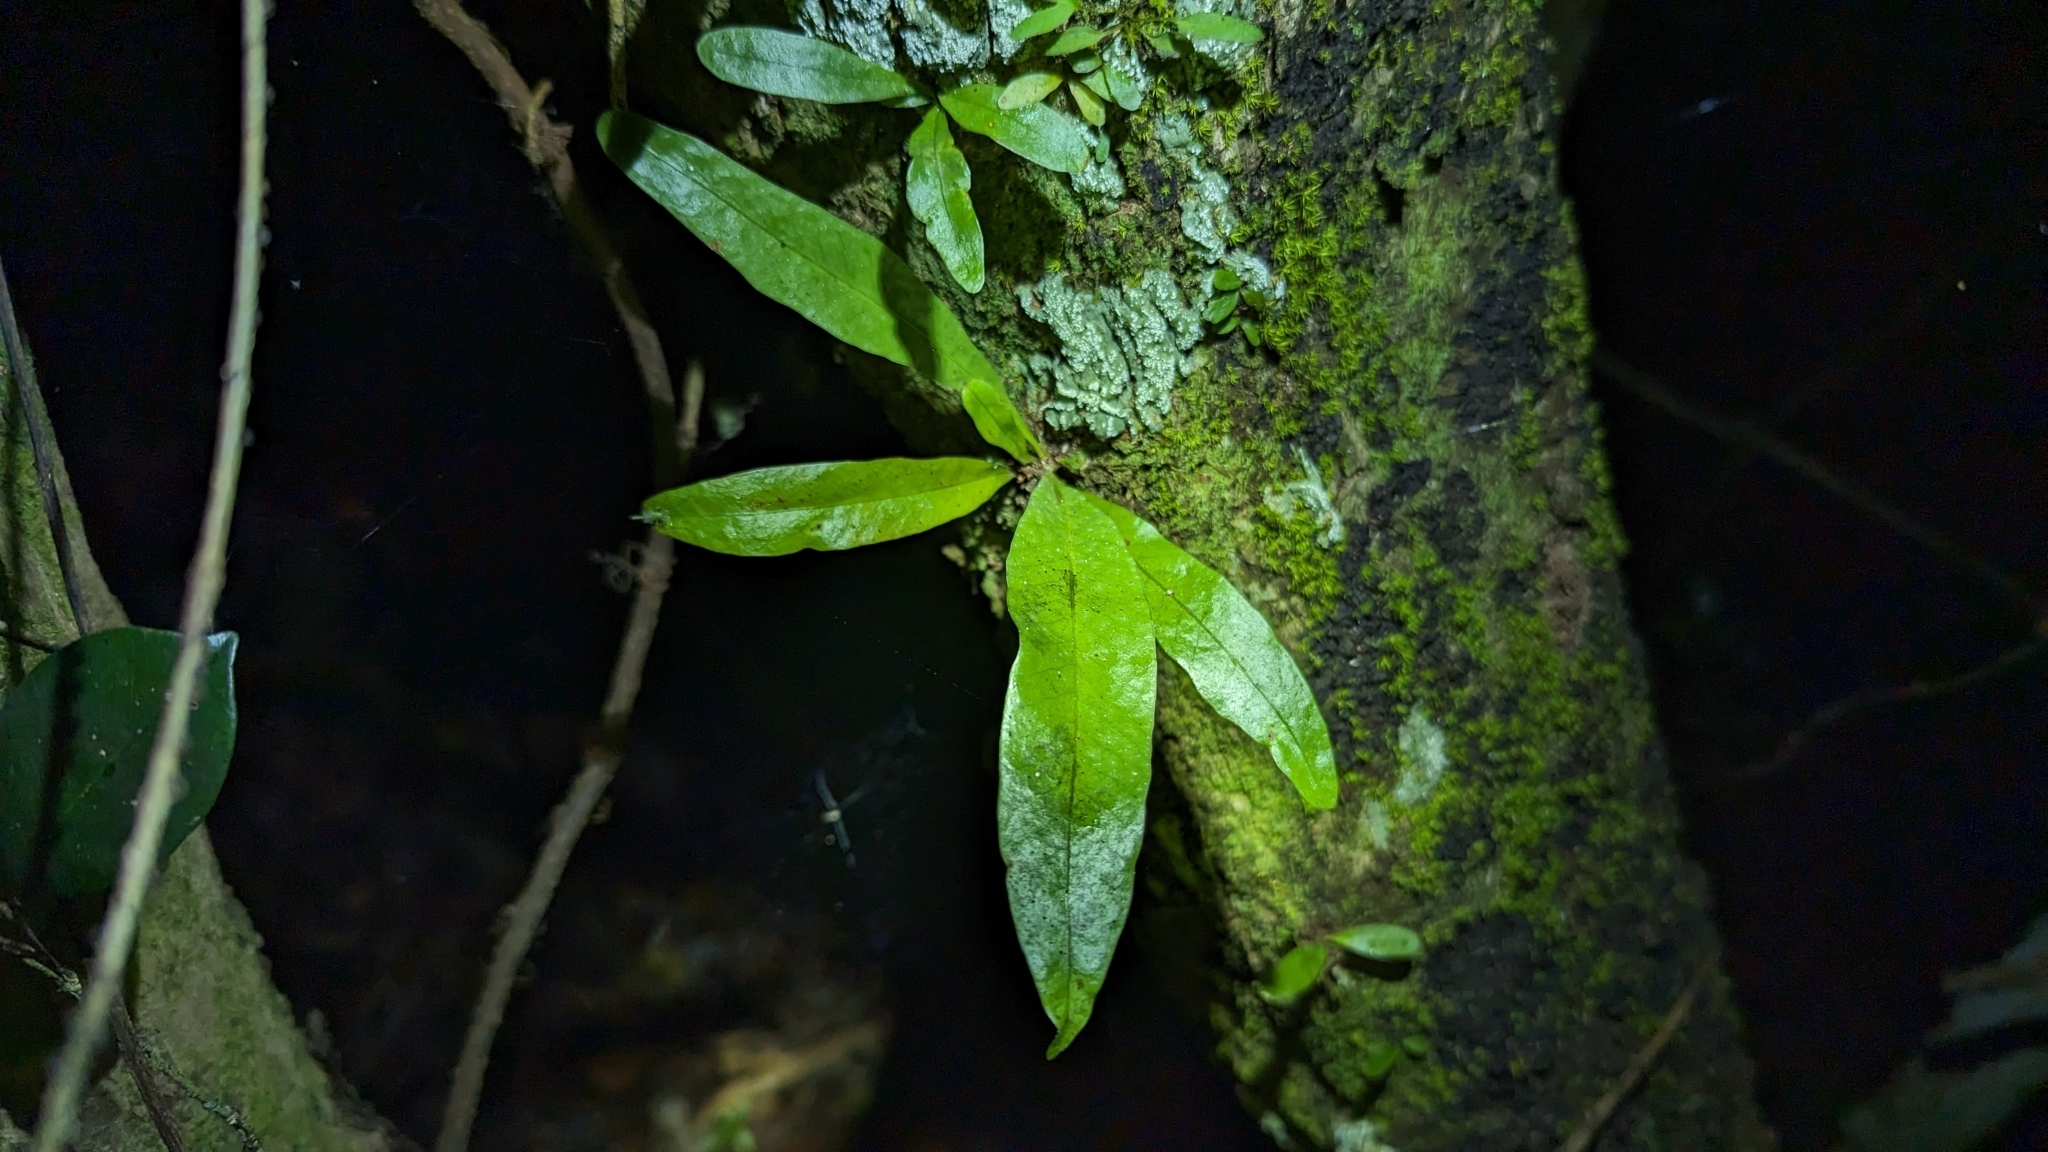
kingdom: Plantae
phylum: Tracheophyta
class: Polypodiopsida
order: Polypodiales
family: Polypodiaceae
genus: Campyloneurum
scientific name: Campyloneurum phyllitidis
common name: Cow-tongue fern
